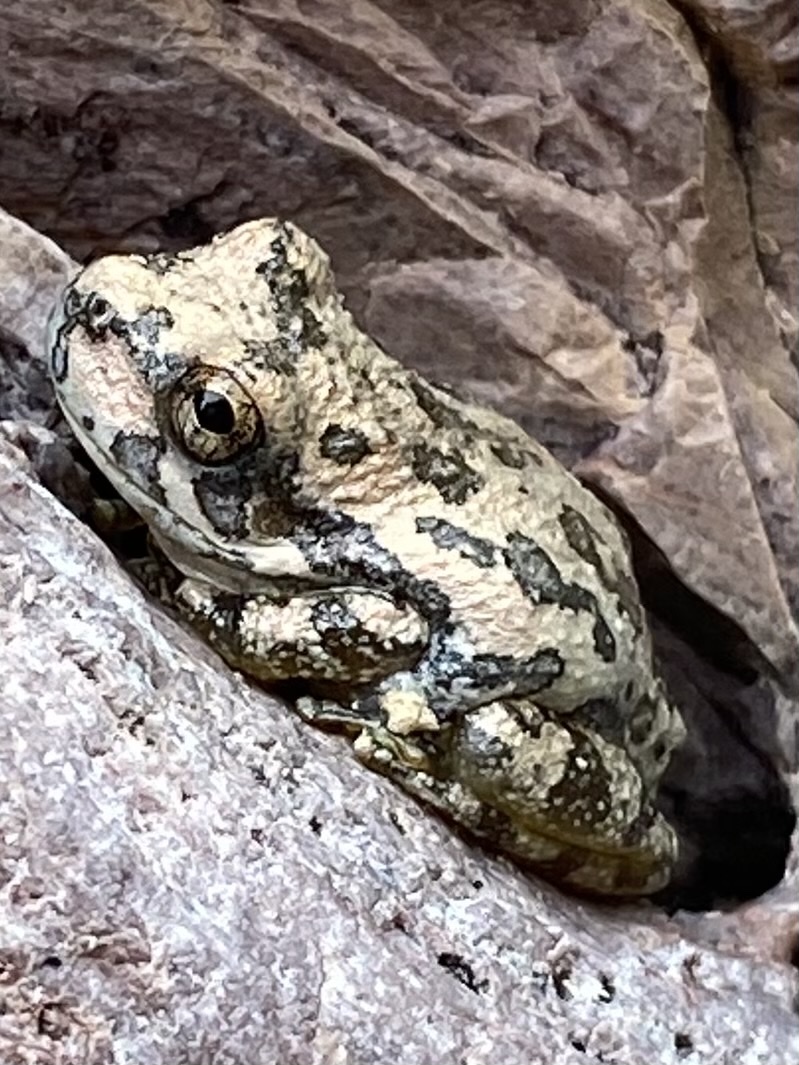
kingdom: Animalia
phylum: Chordata
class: Amphibia
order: Anura
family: Hylidae
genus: Dryophytes
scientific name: Dryophytes arenicolor
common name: Canyon treefrog
